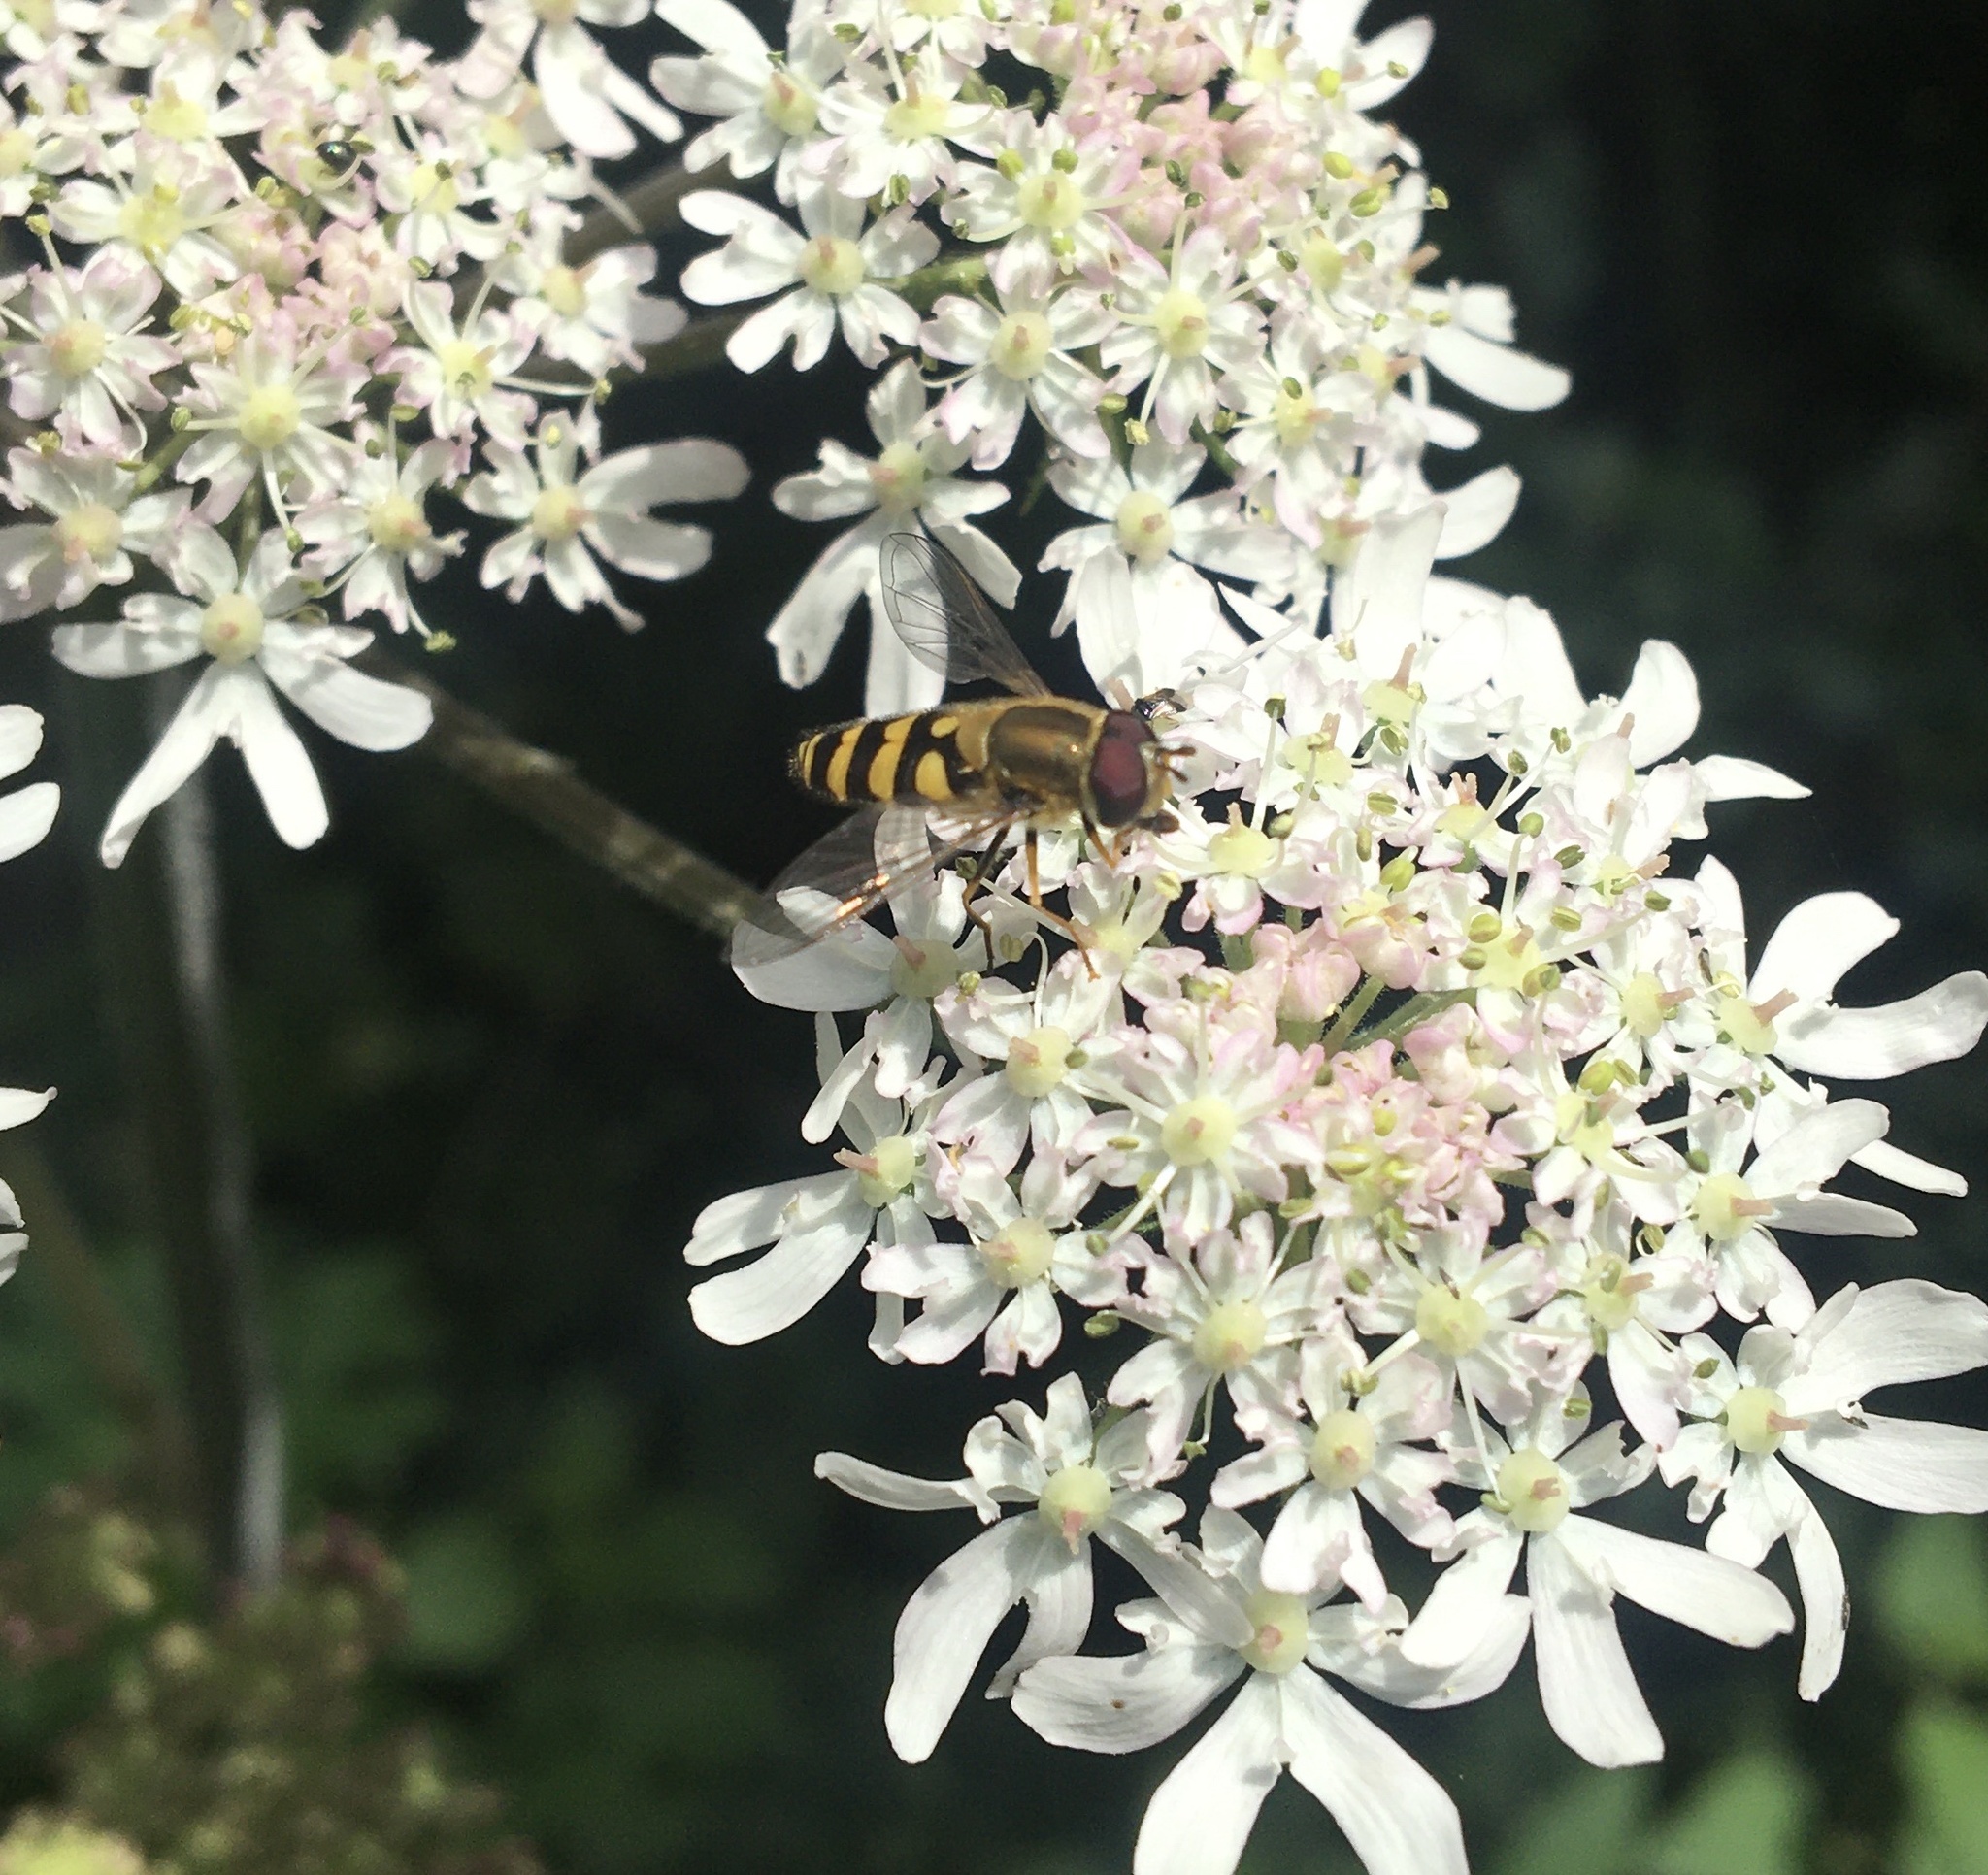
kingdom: Animalia
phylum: Arthropoda
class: Insecta
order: Diptera
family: Syrphidae
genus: Syrphus
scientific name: Syrphus
